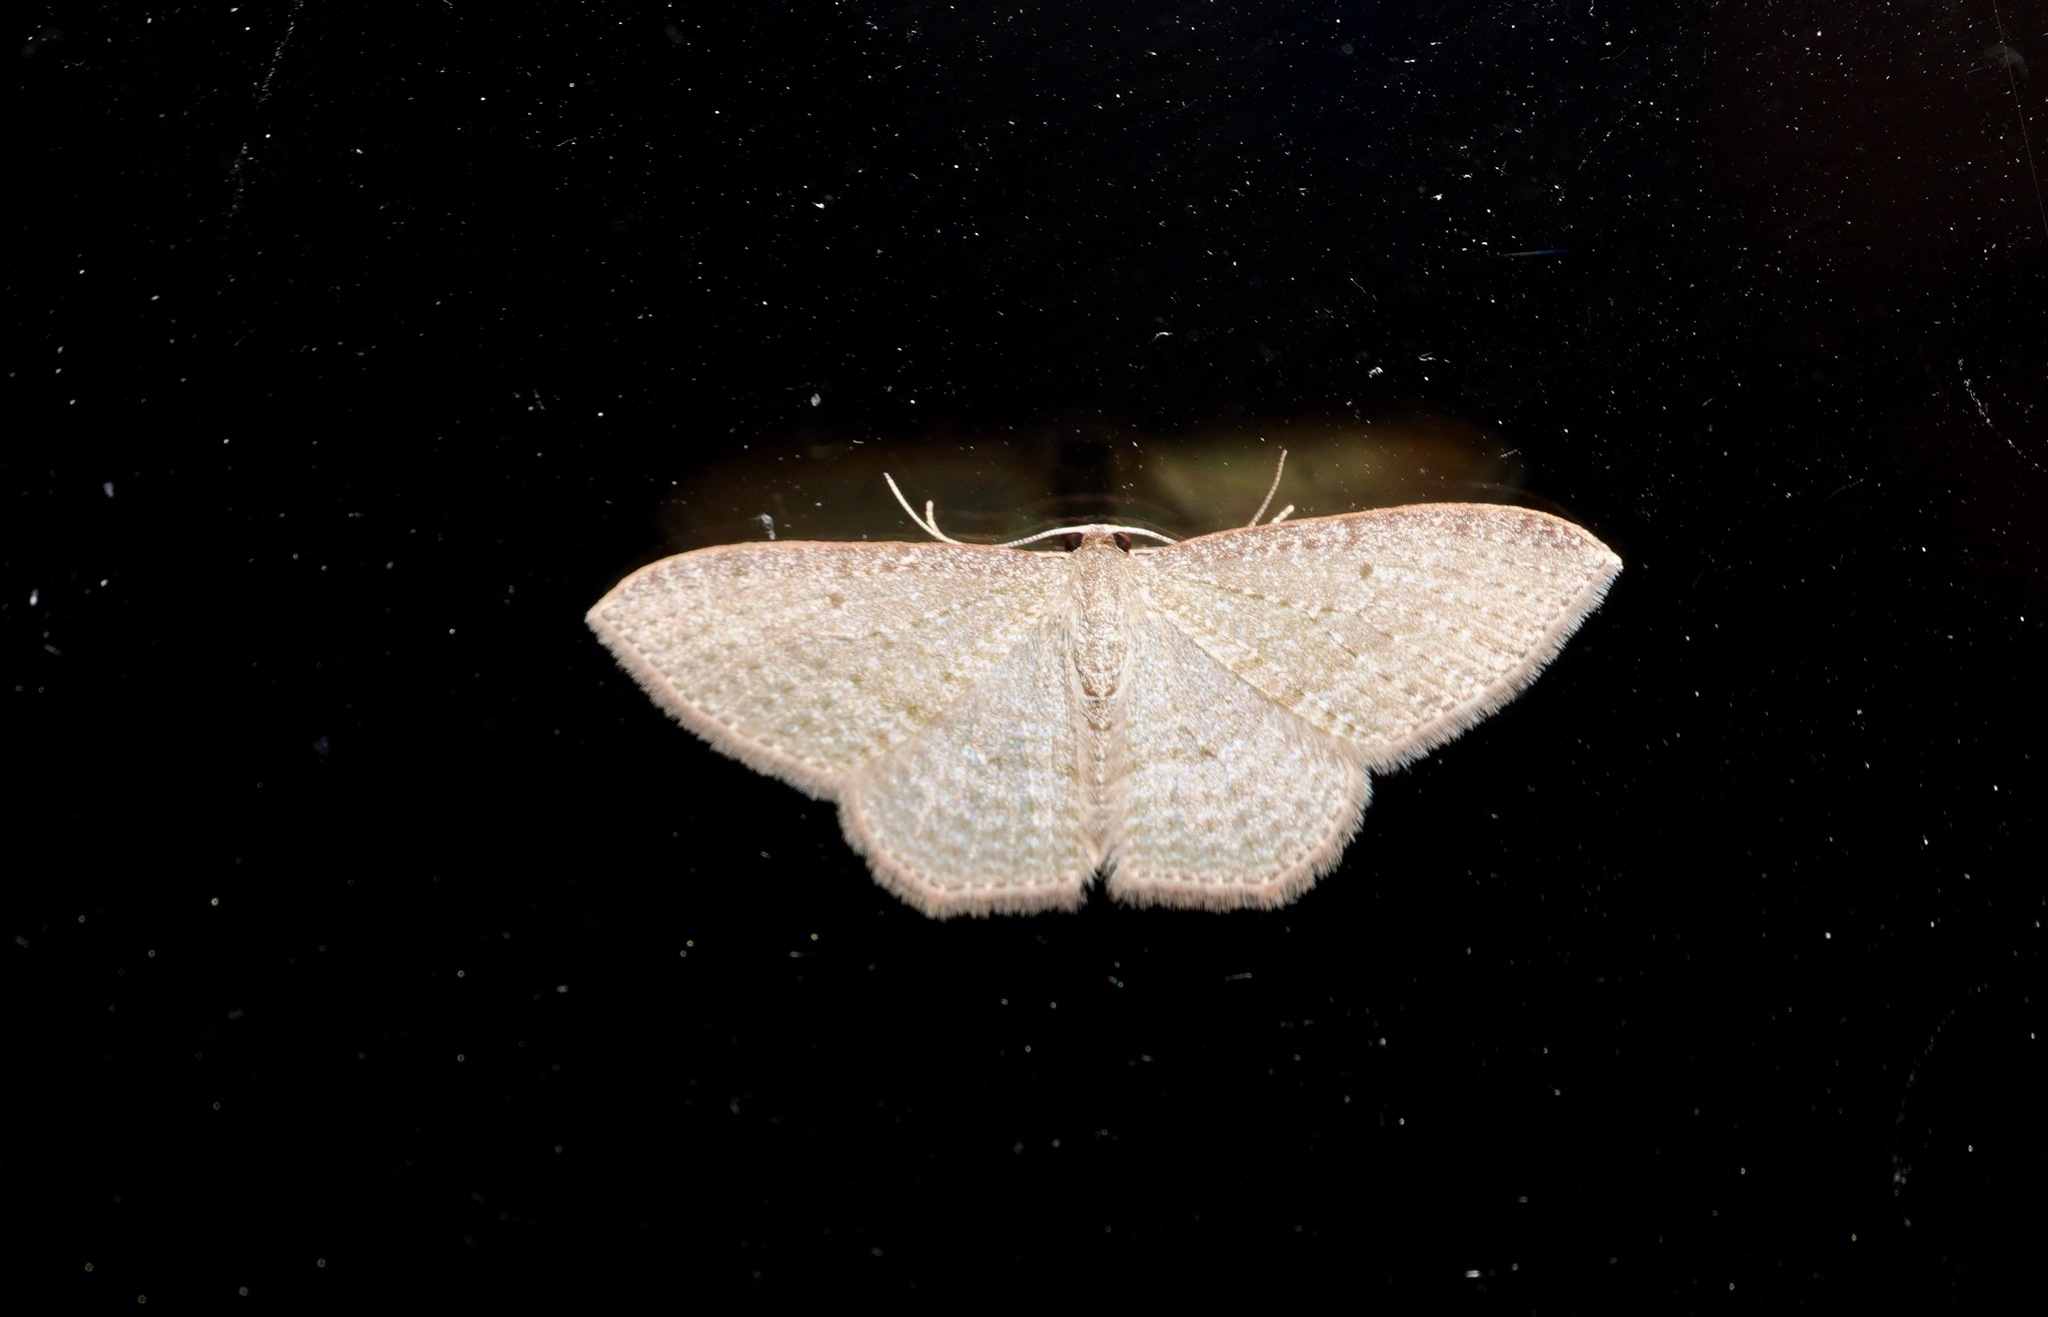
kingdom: Animalia
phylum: Arthropoda
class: Insecta
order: Lepidoptera
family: Geometridae
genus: Poecilasthena
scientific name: Poecilasthena subpurpureata
